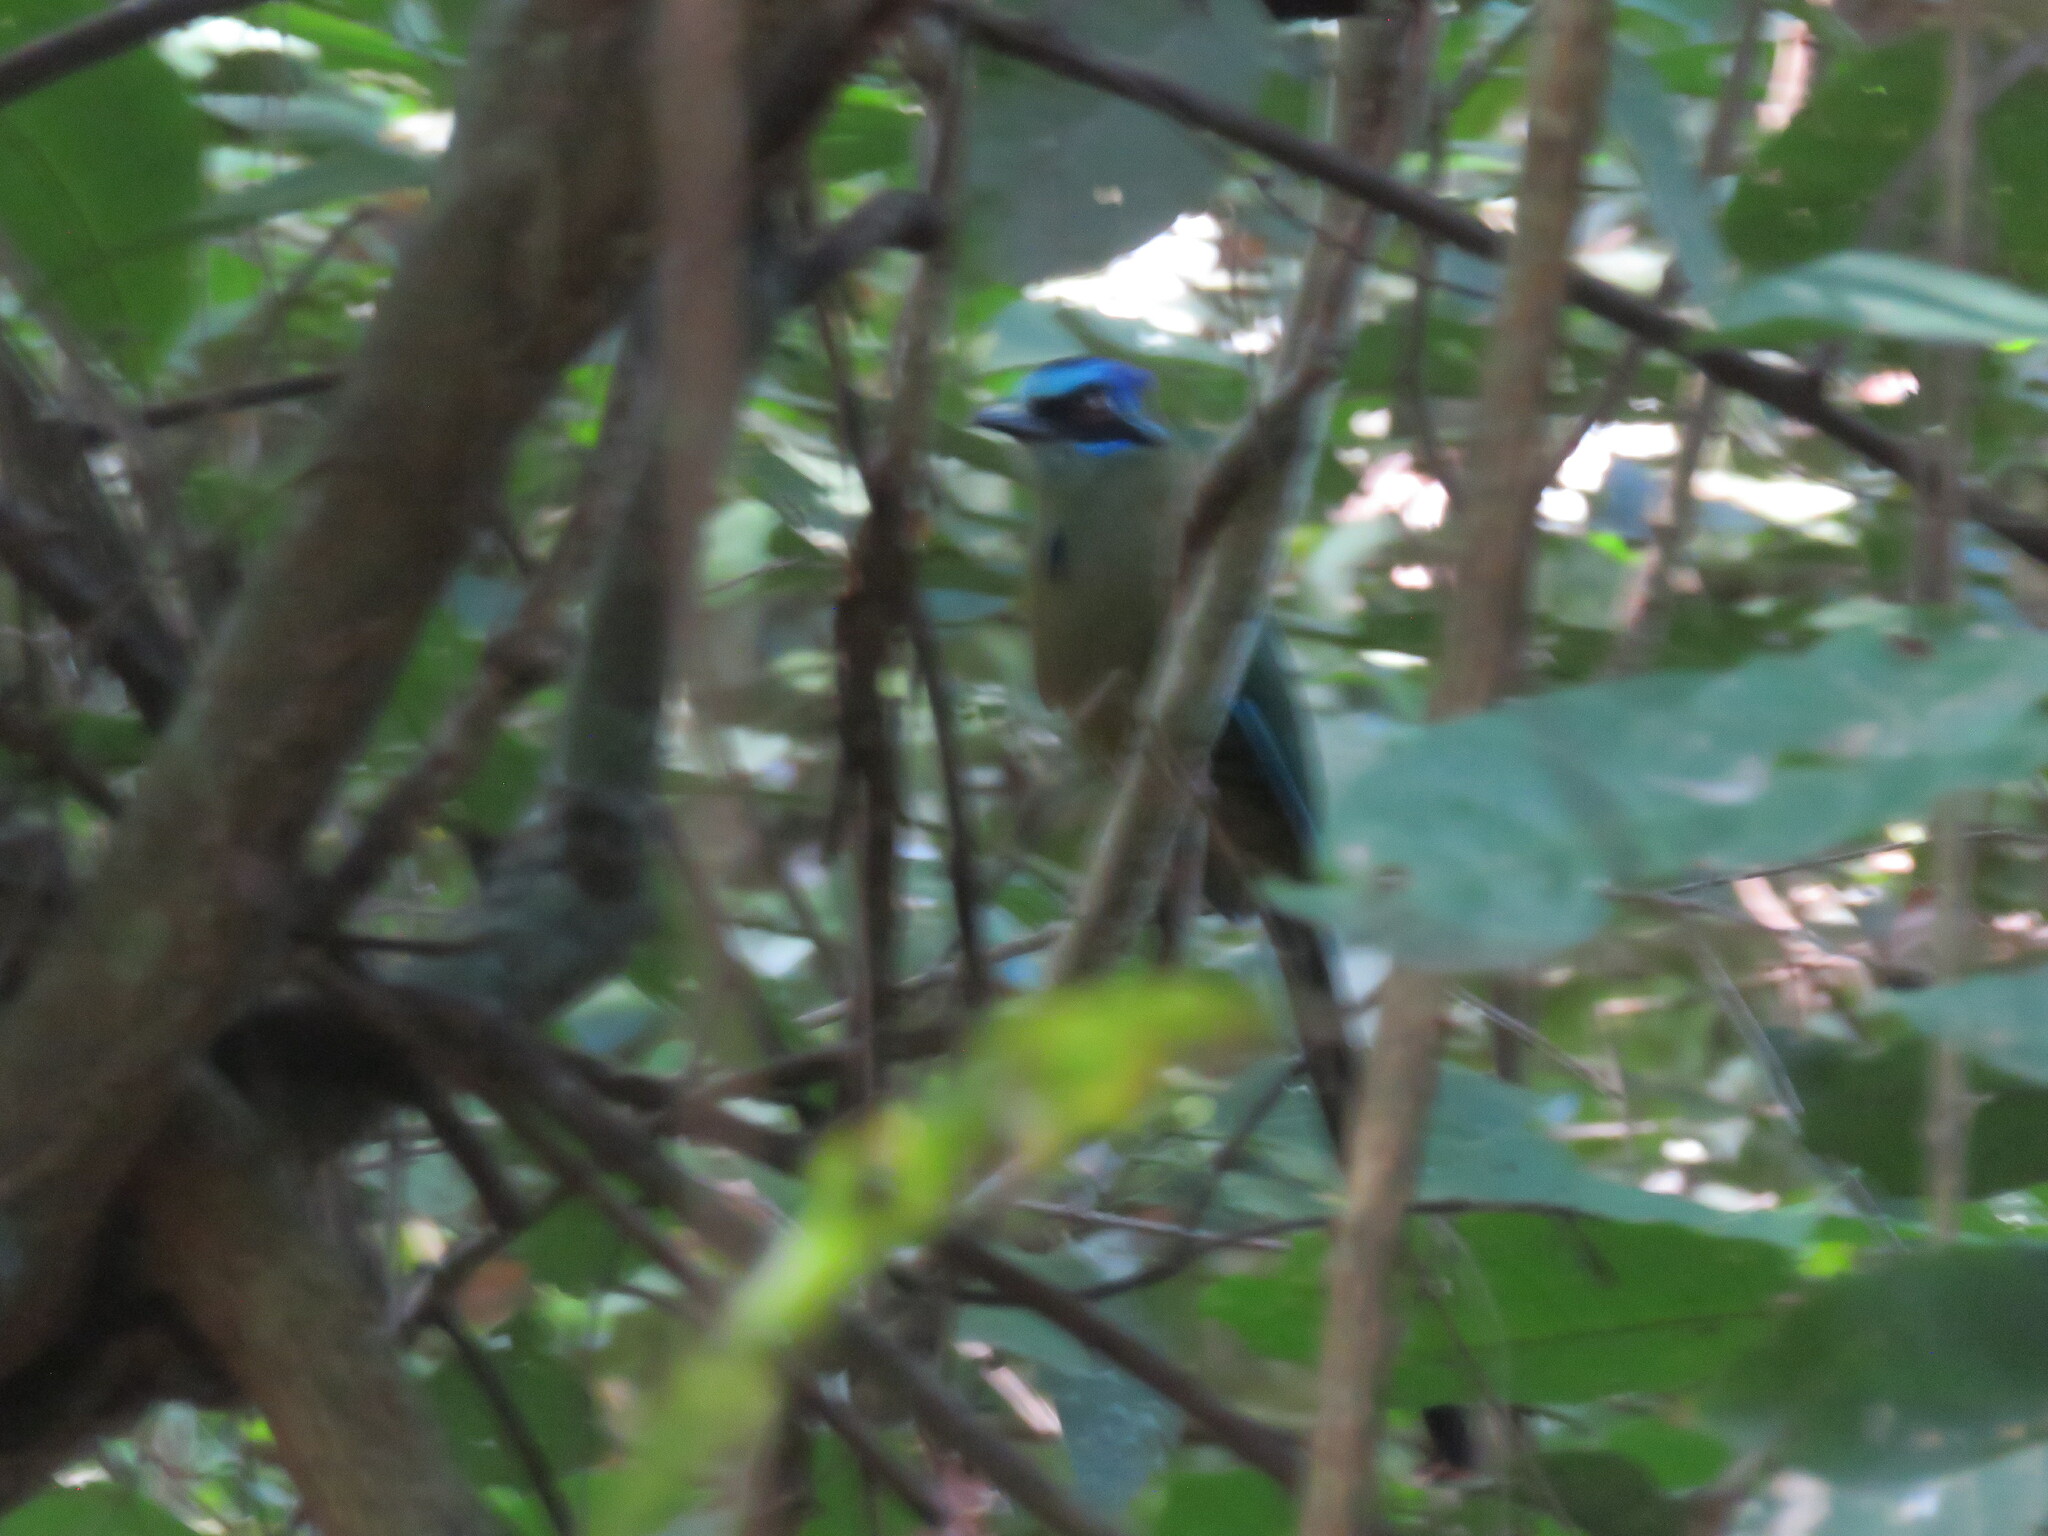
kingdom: Animalia
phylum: Chordata
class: Aves
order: Coraciiformes
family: Momotidae
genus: Momotus
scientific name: Momotus momota
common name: Amazonian motmot
